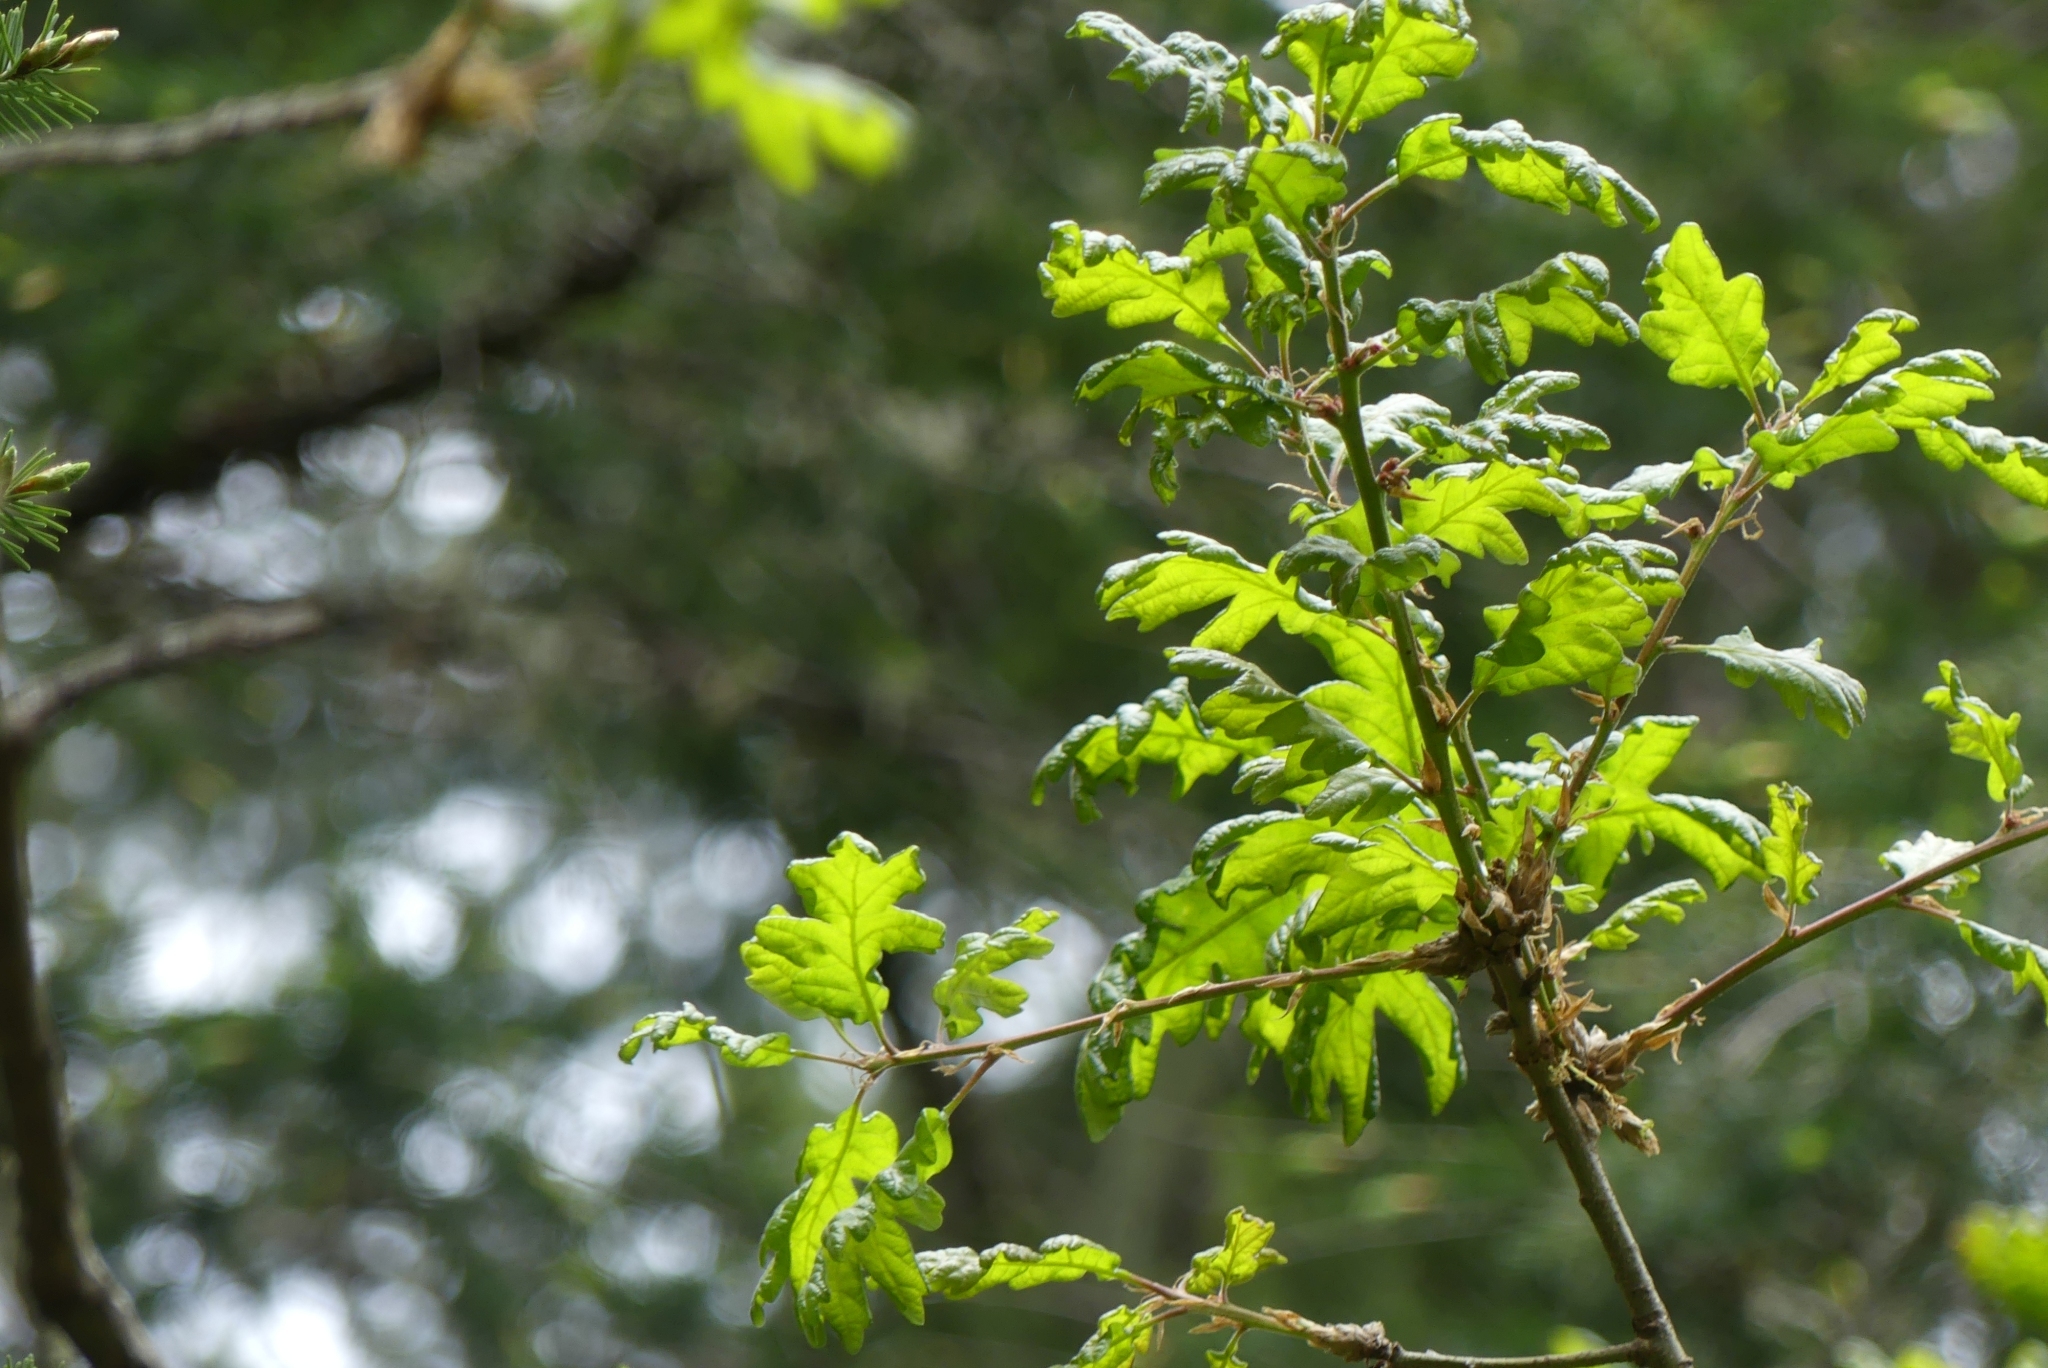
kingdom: Plantae
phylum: Tracheophyta
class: Magnoliopsida
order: Fagales
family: Fagaceae
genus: Quercus
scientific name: Quercus garryana
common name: Garry oak
